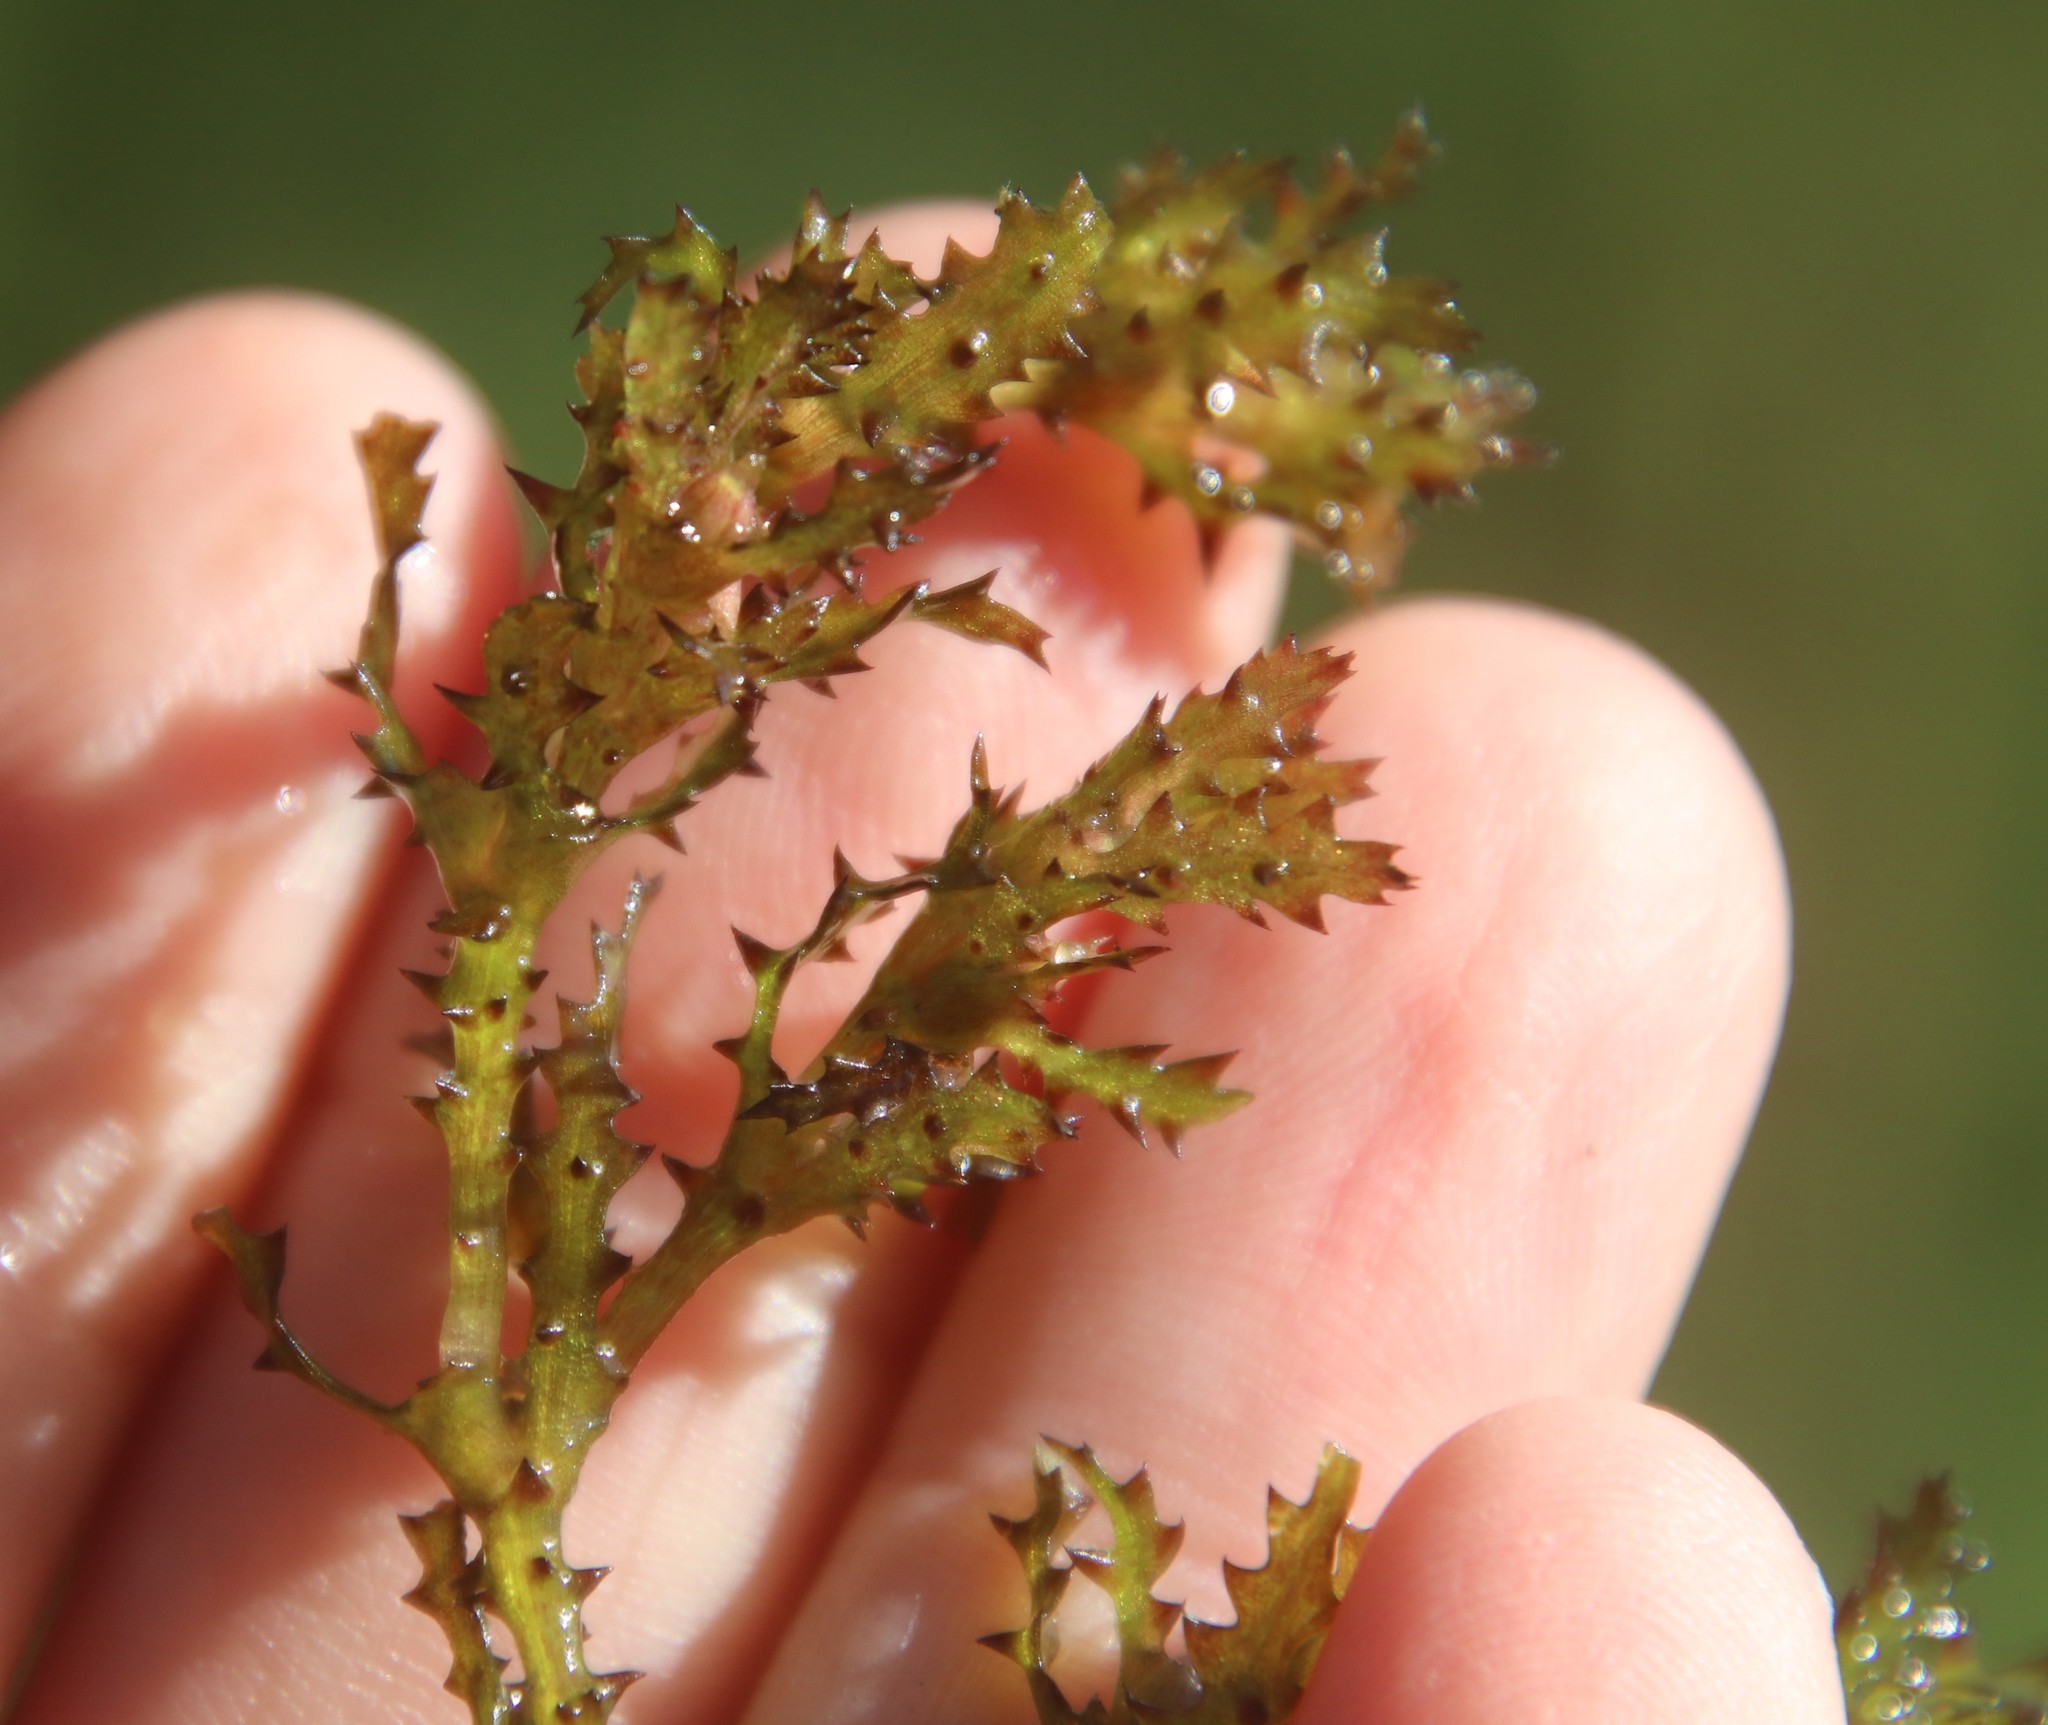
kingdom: Plantae
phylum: Tracheophyta
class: Liliopsida
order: Alismatales
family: Hydrocharitaceae
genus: Najas
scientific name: Najas marina
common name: Holly-leaved naiad
